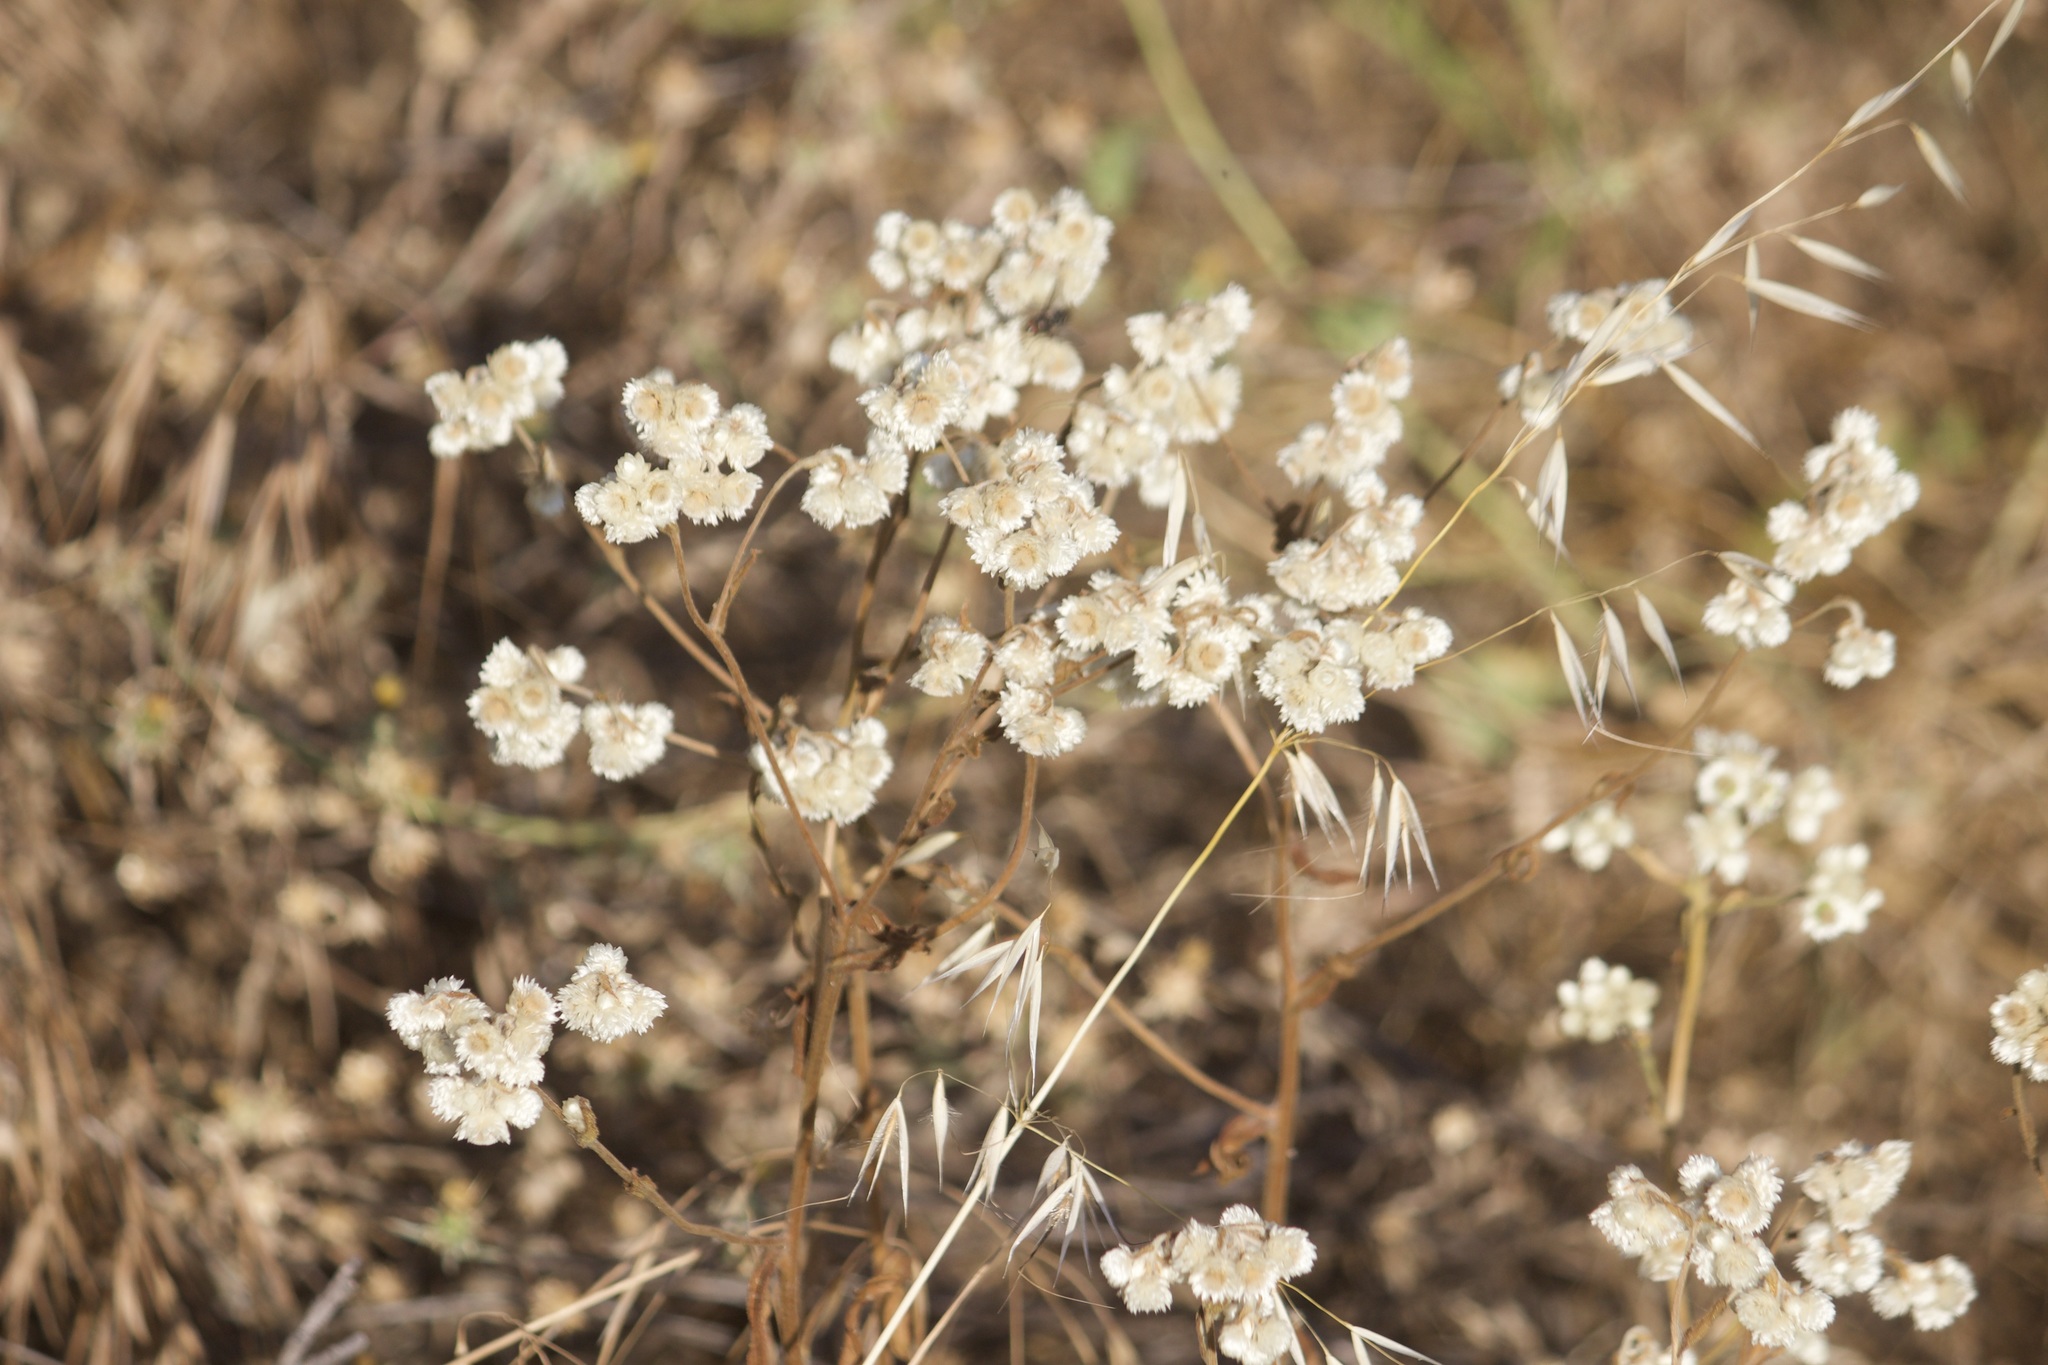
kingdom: Plantae
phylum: Tracheophyta
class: Magnoliopsida
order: Asterales
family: Asteraceae
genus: Pseudognaphalium
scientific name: Pseudognaphalium californicum
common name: California rabbit-tobacco
